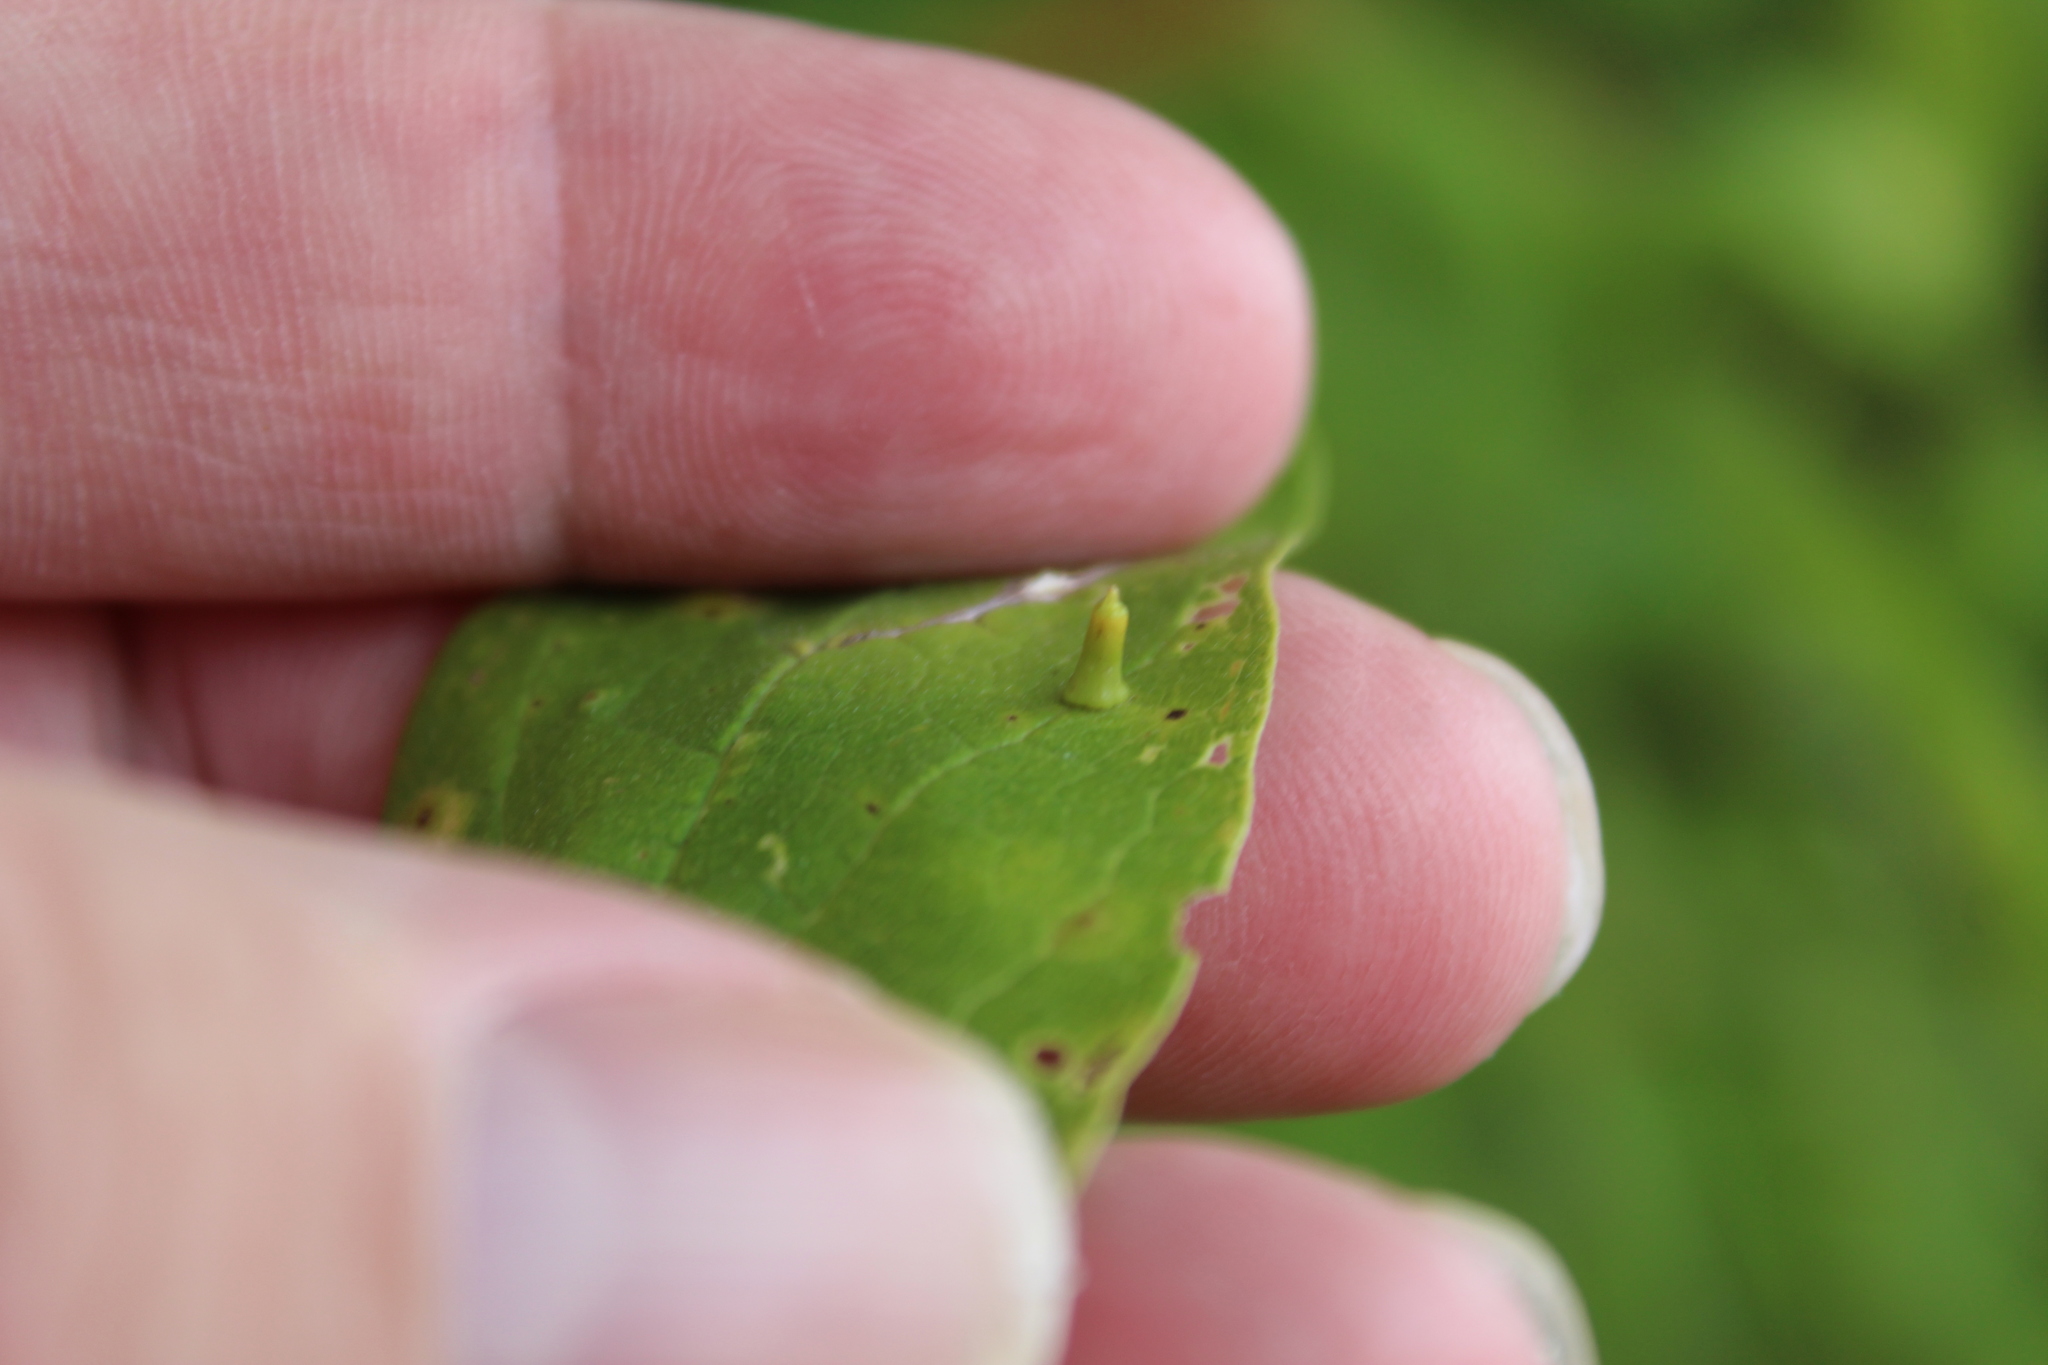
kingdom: Animalia
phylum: Arthropoda
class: Insecta
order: Diptera
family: Cecidomyiidae
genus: Celticecis
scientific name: Celticecis aciculata
